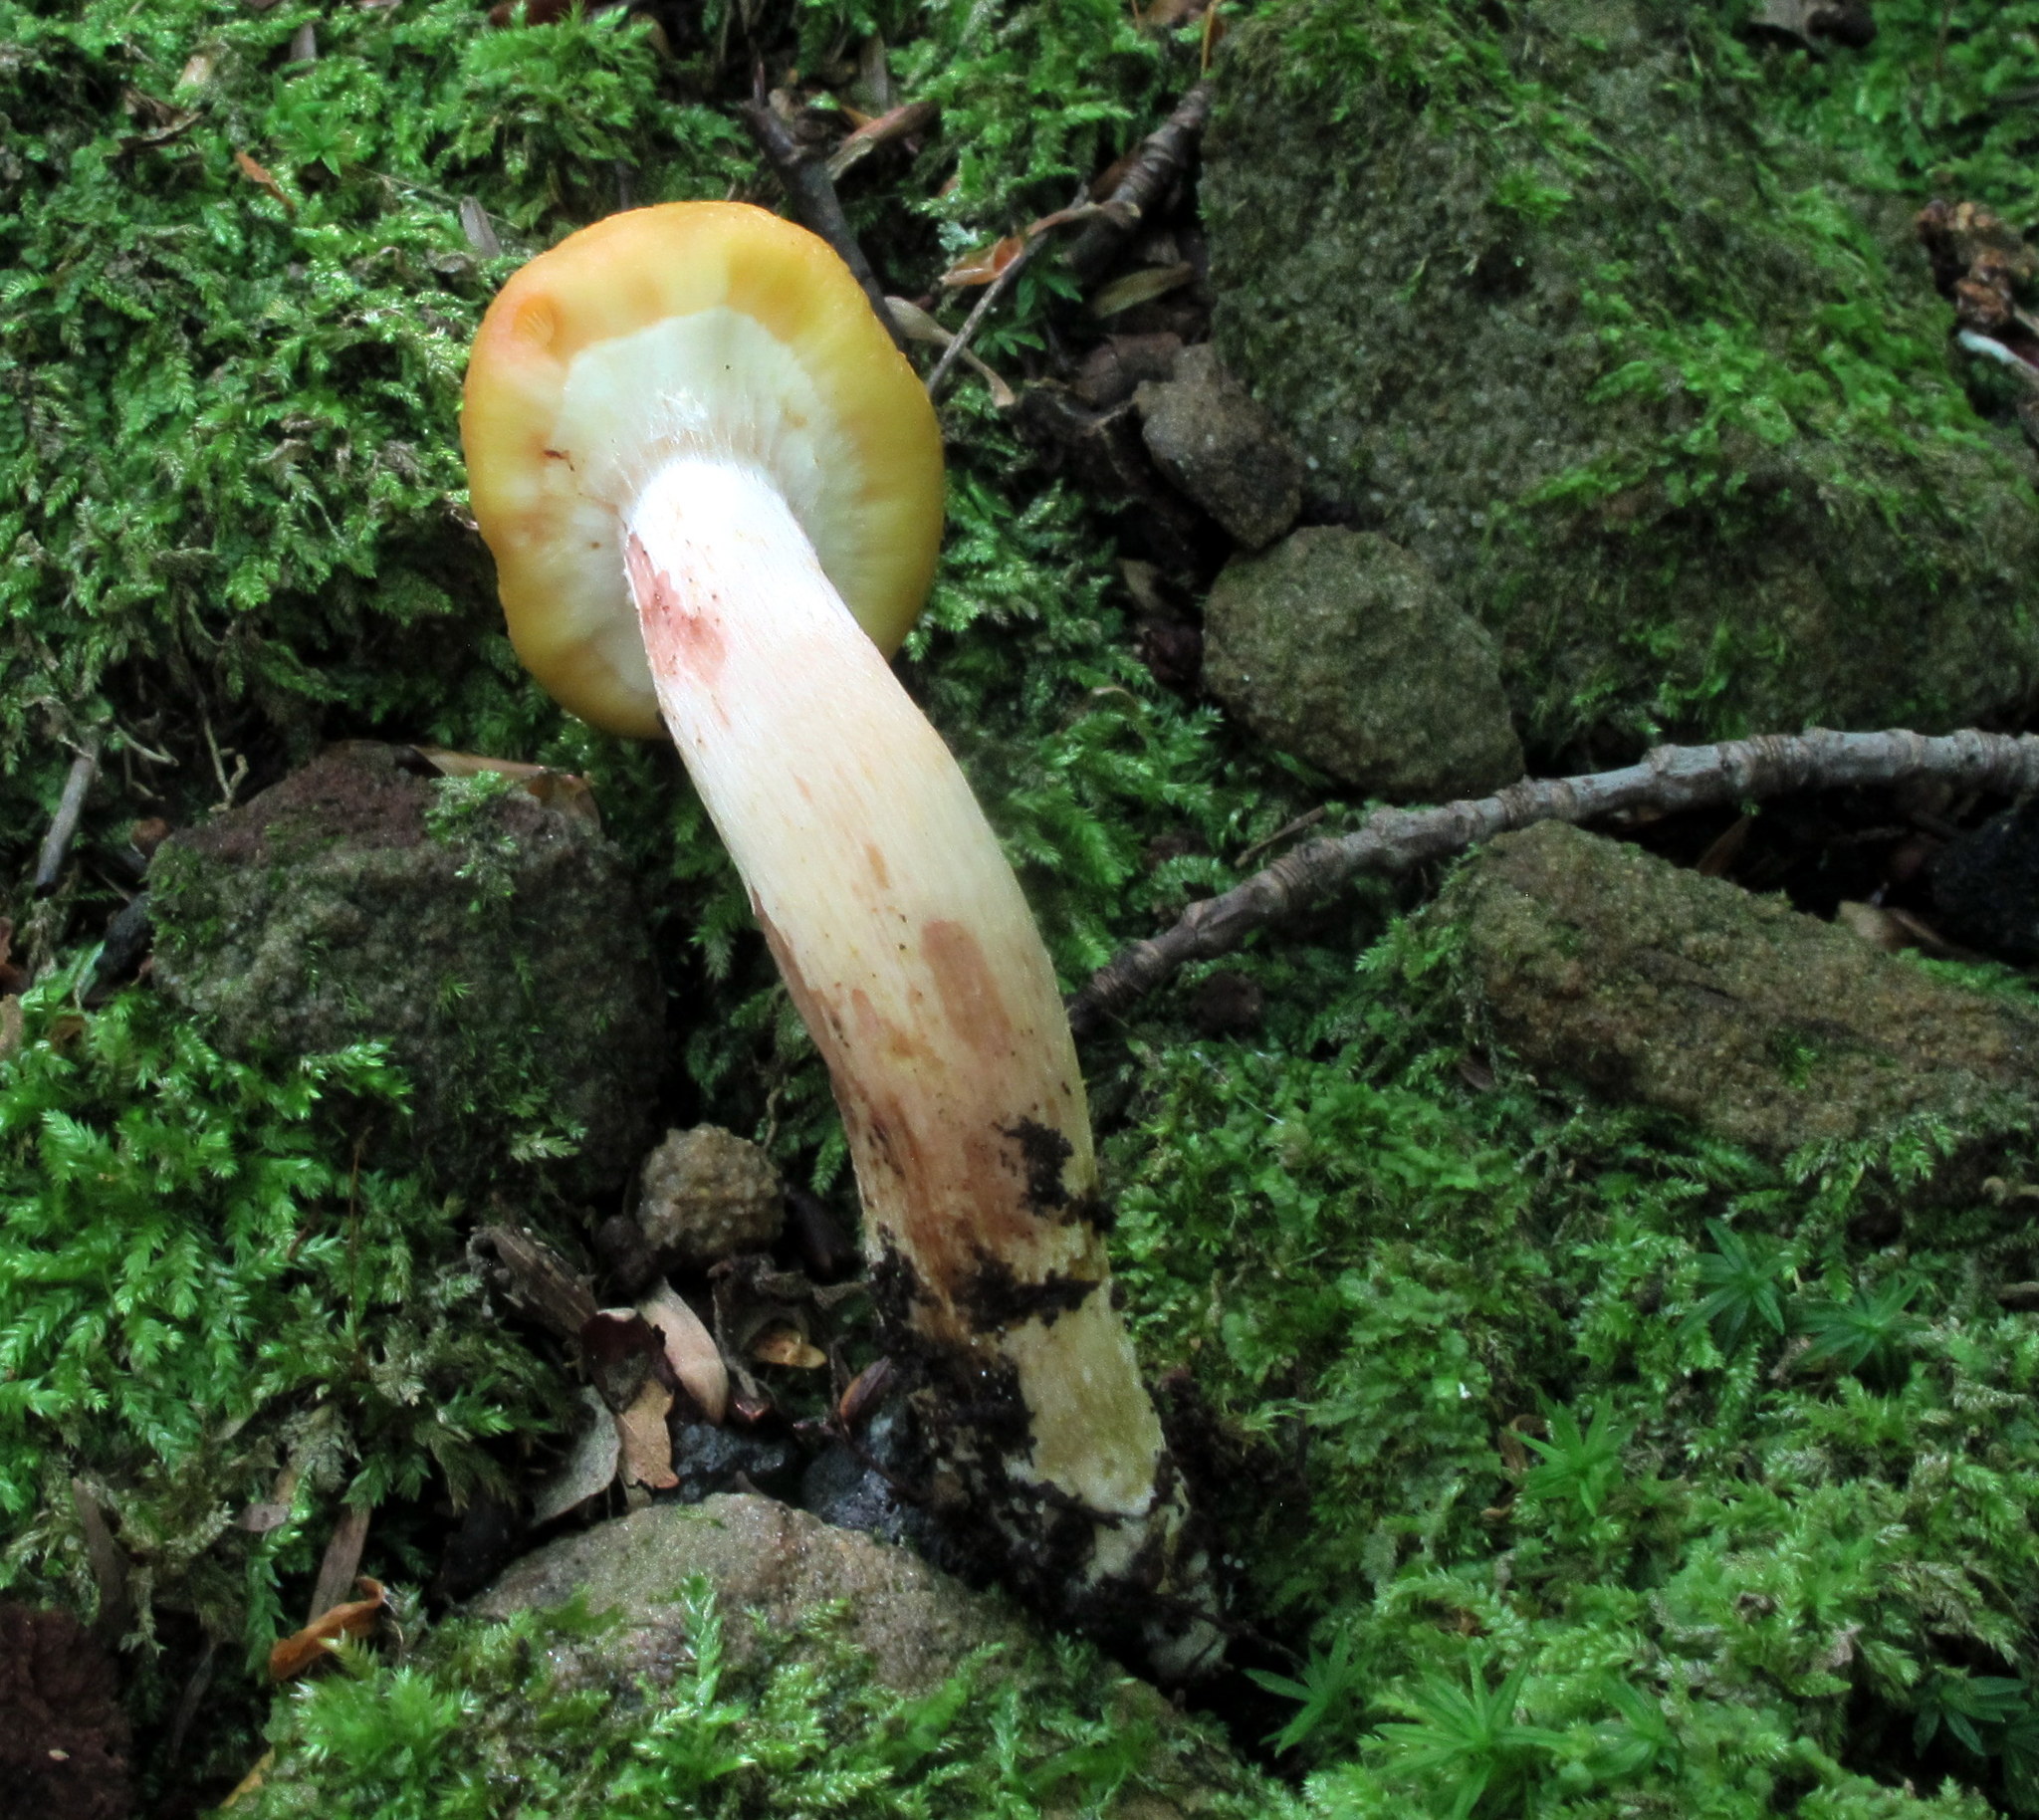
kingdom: Fungi
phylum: Basidiomycota
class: Agaricomycetes
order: Agaricales
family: Physalacriaceae
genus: Armillaria
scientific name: Armillaria mellea
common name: Honey fungus
